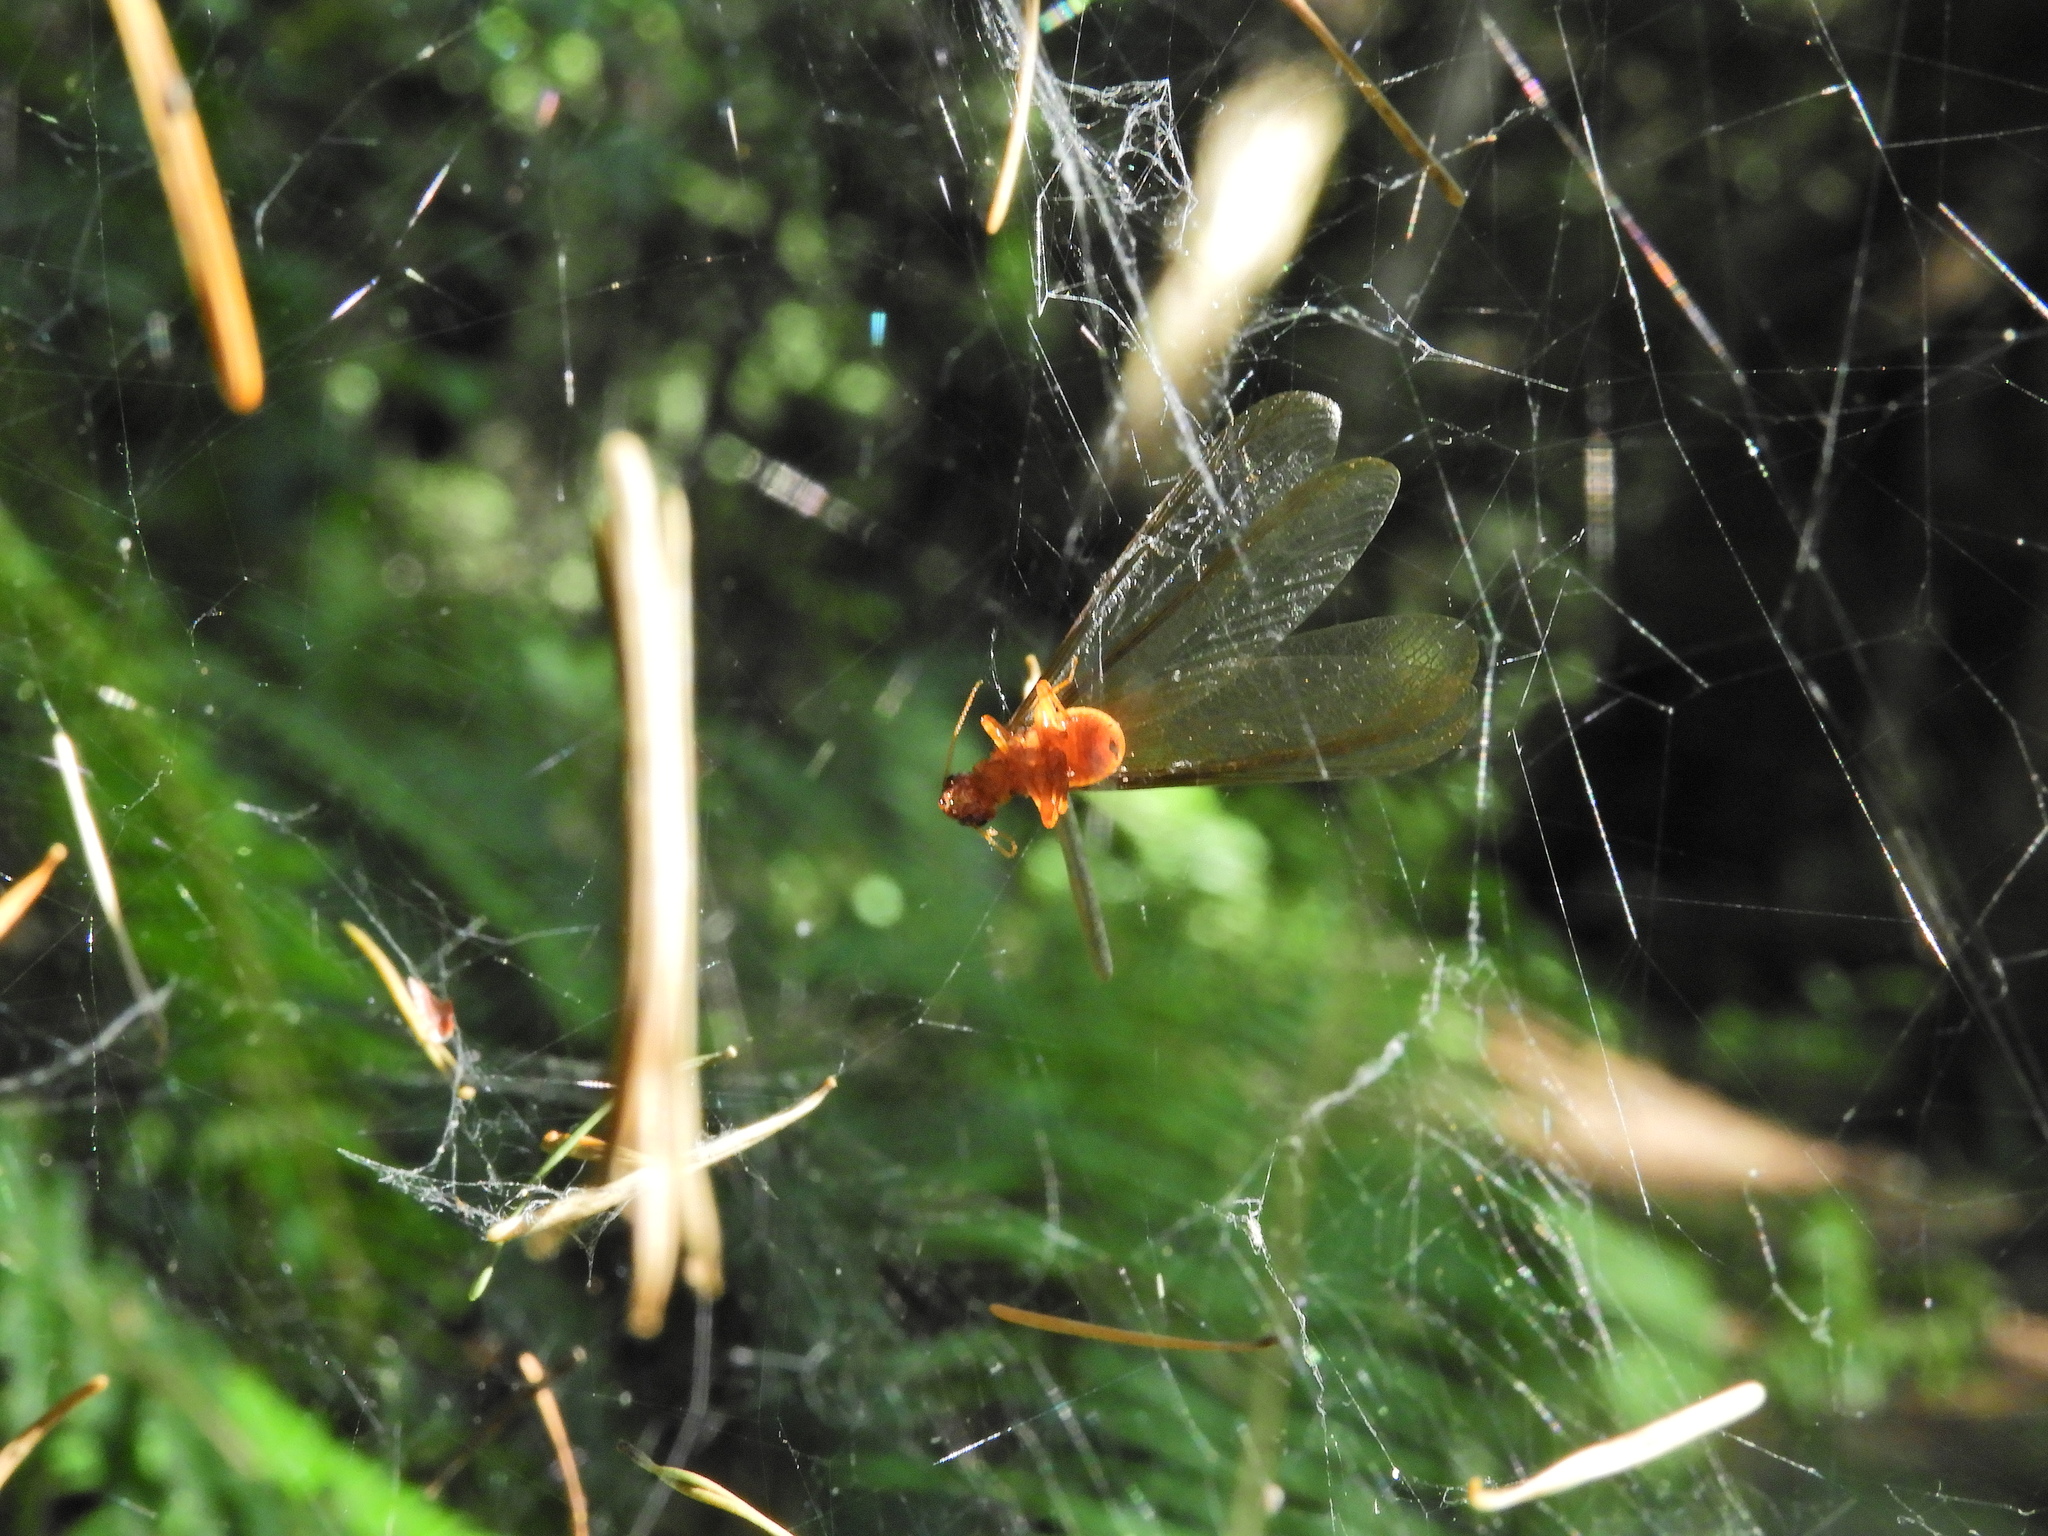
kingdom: Animalia
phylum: Arthropoda
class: Insecta
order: Blattodea
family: Archotermopsidae
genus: Zootermopsis
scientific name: Zootermopsis angusticollis
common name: Rottenwood termite
